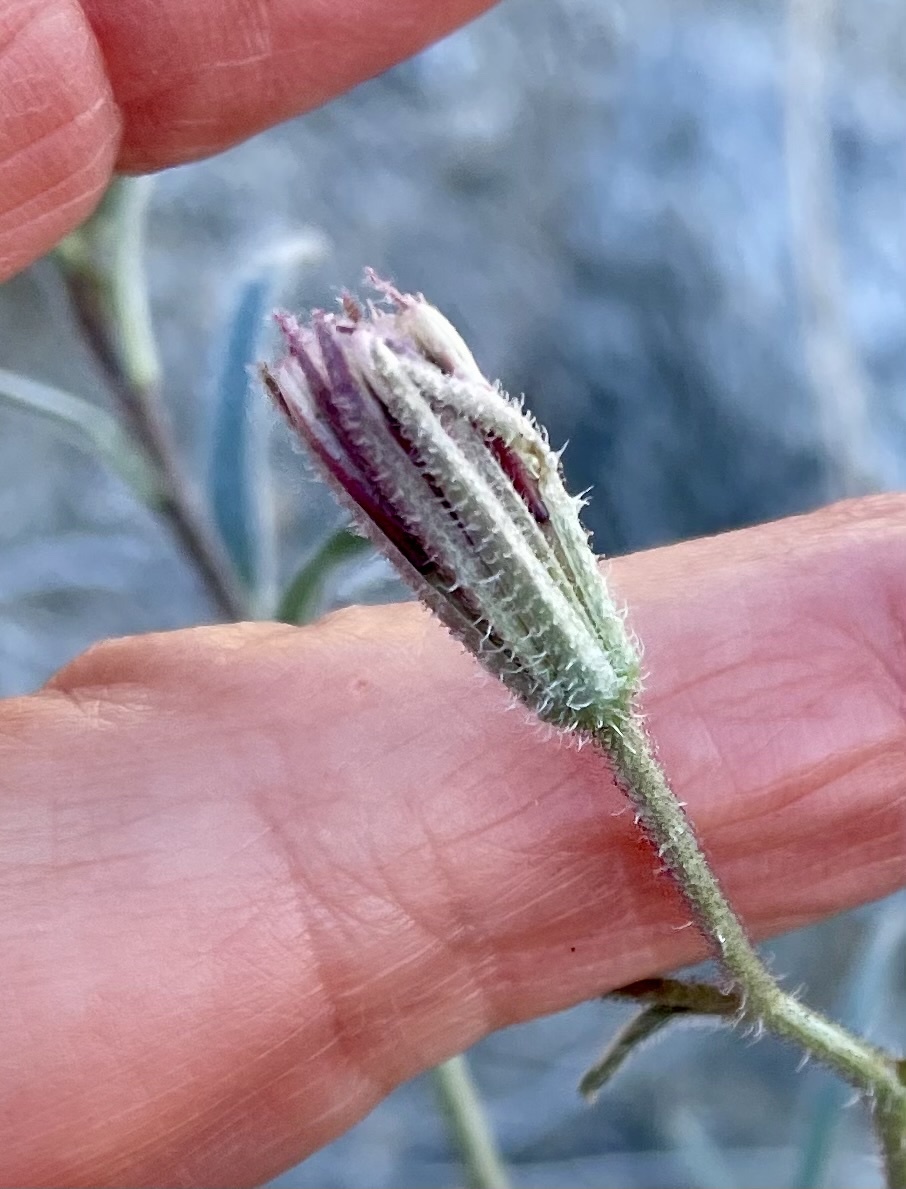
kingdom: Plantae
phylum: Tracheophyta
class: Magnoliopsida
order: Asterales
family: Asteraceae
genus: Palafoxia
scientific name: Palafoxia arida
